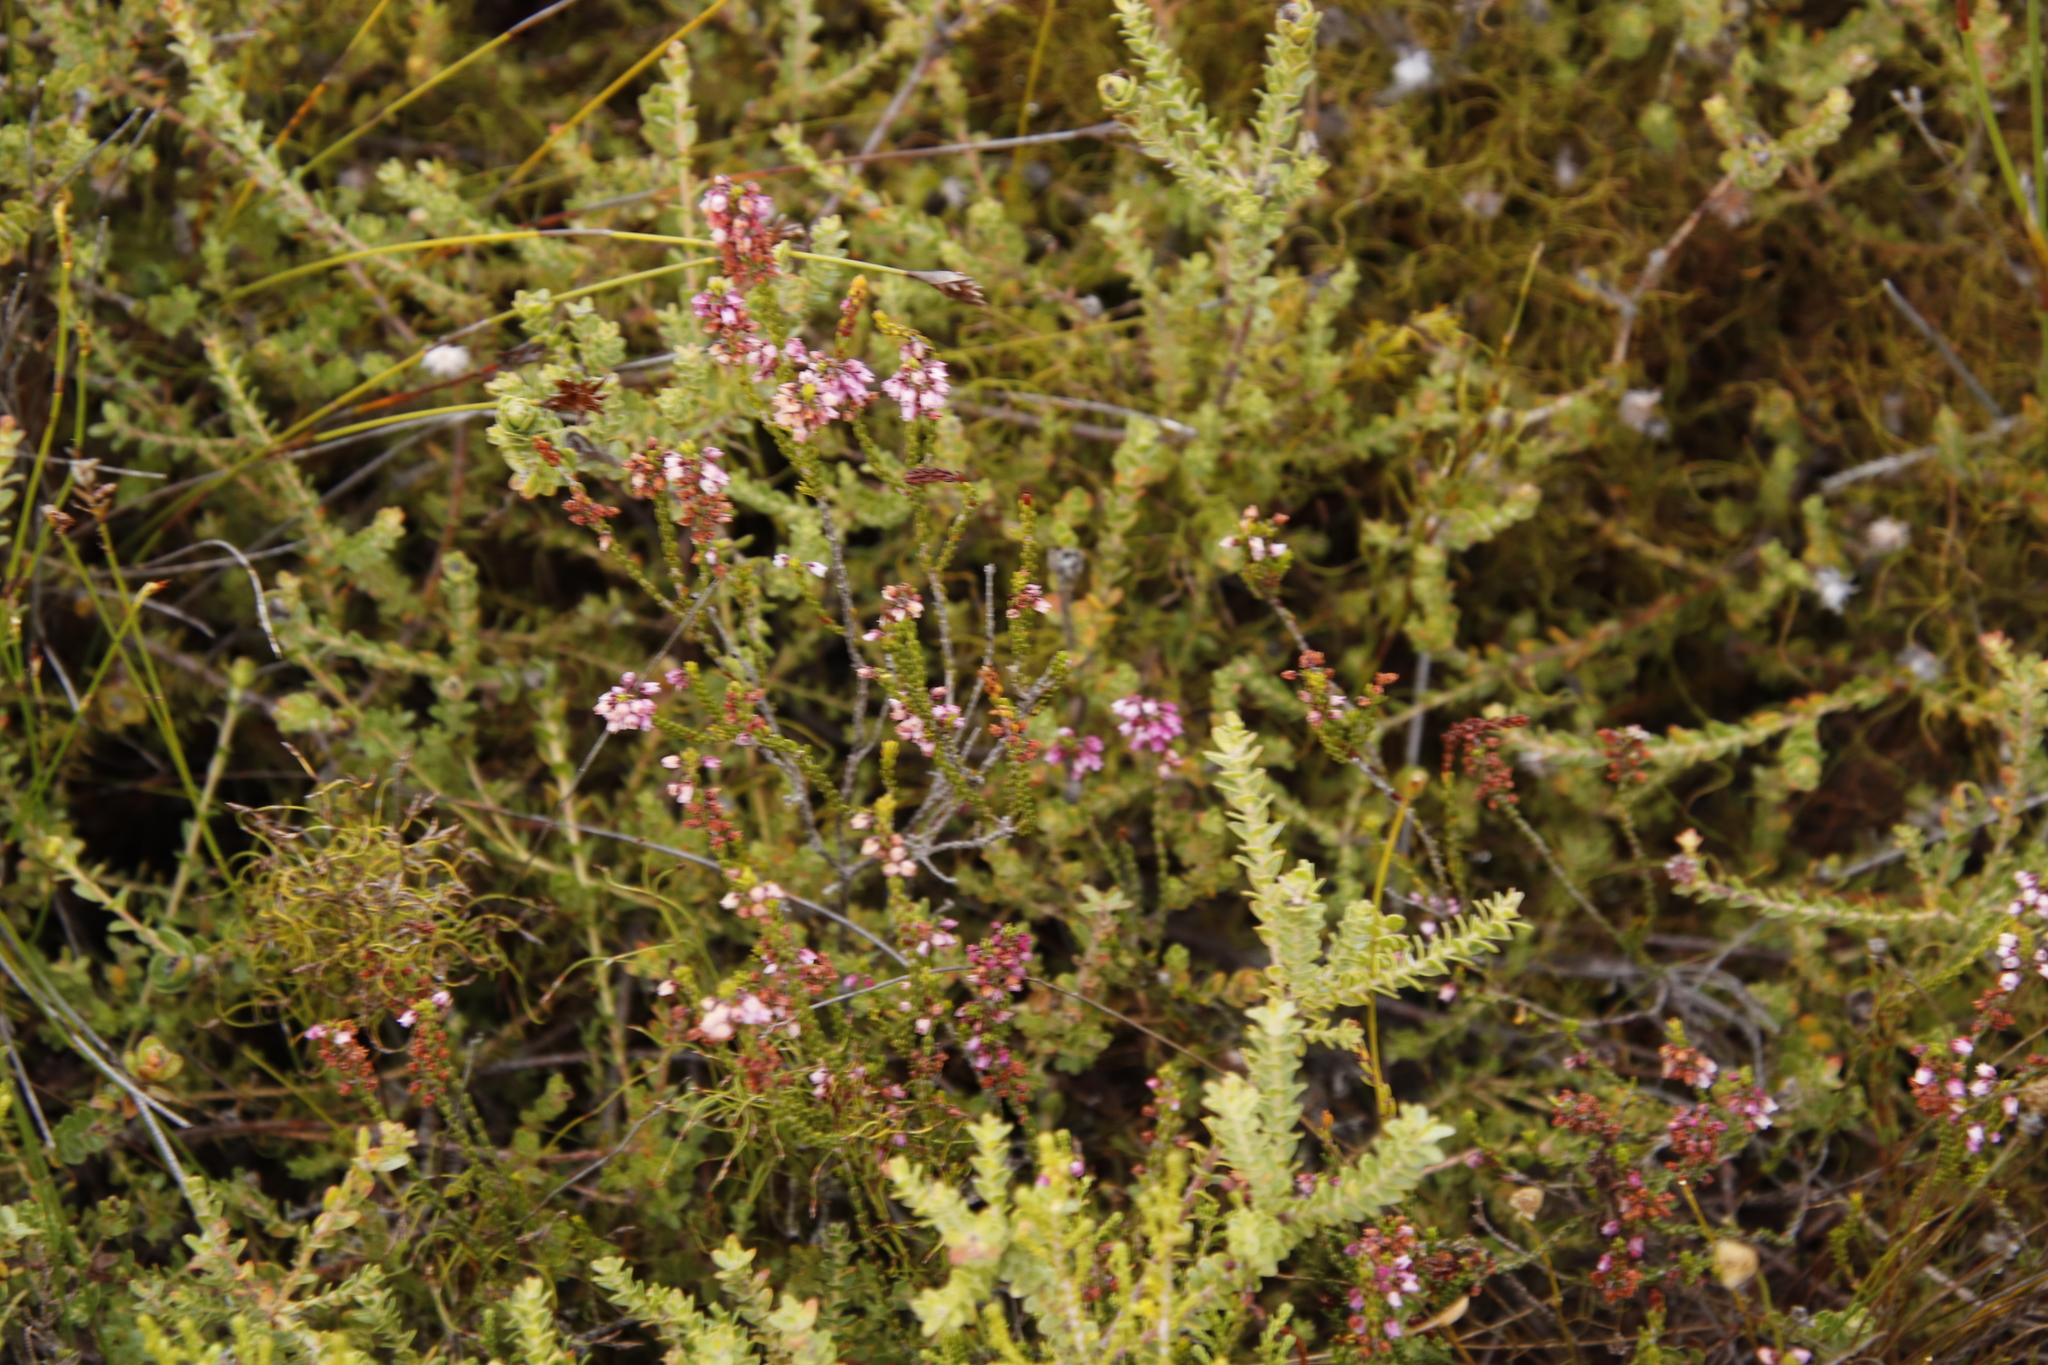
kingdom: Plantae
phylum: Tracheophyta
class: Magnoliopsida
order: Ericales
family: Ericaceae
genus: Erica
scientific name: Erica pulchella
